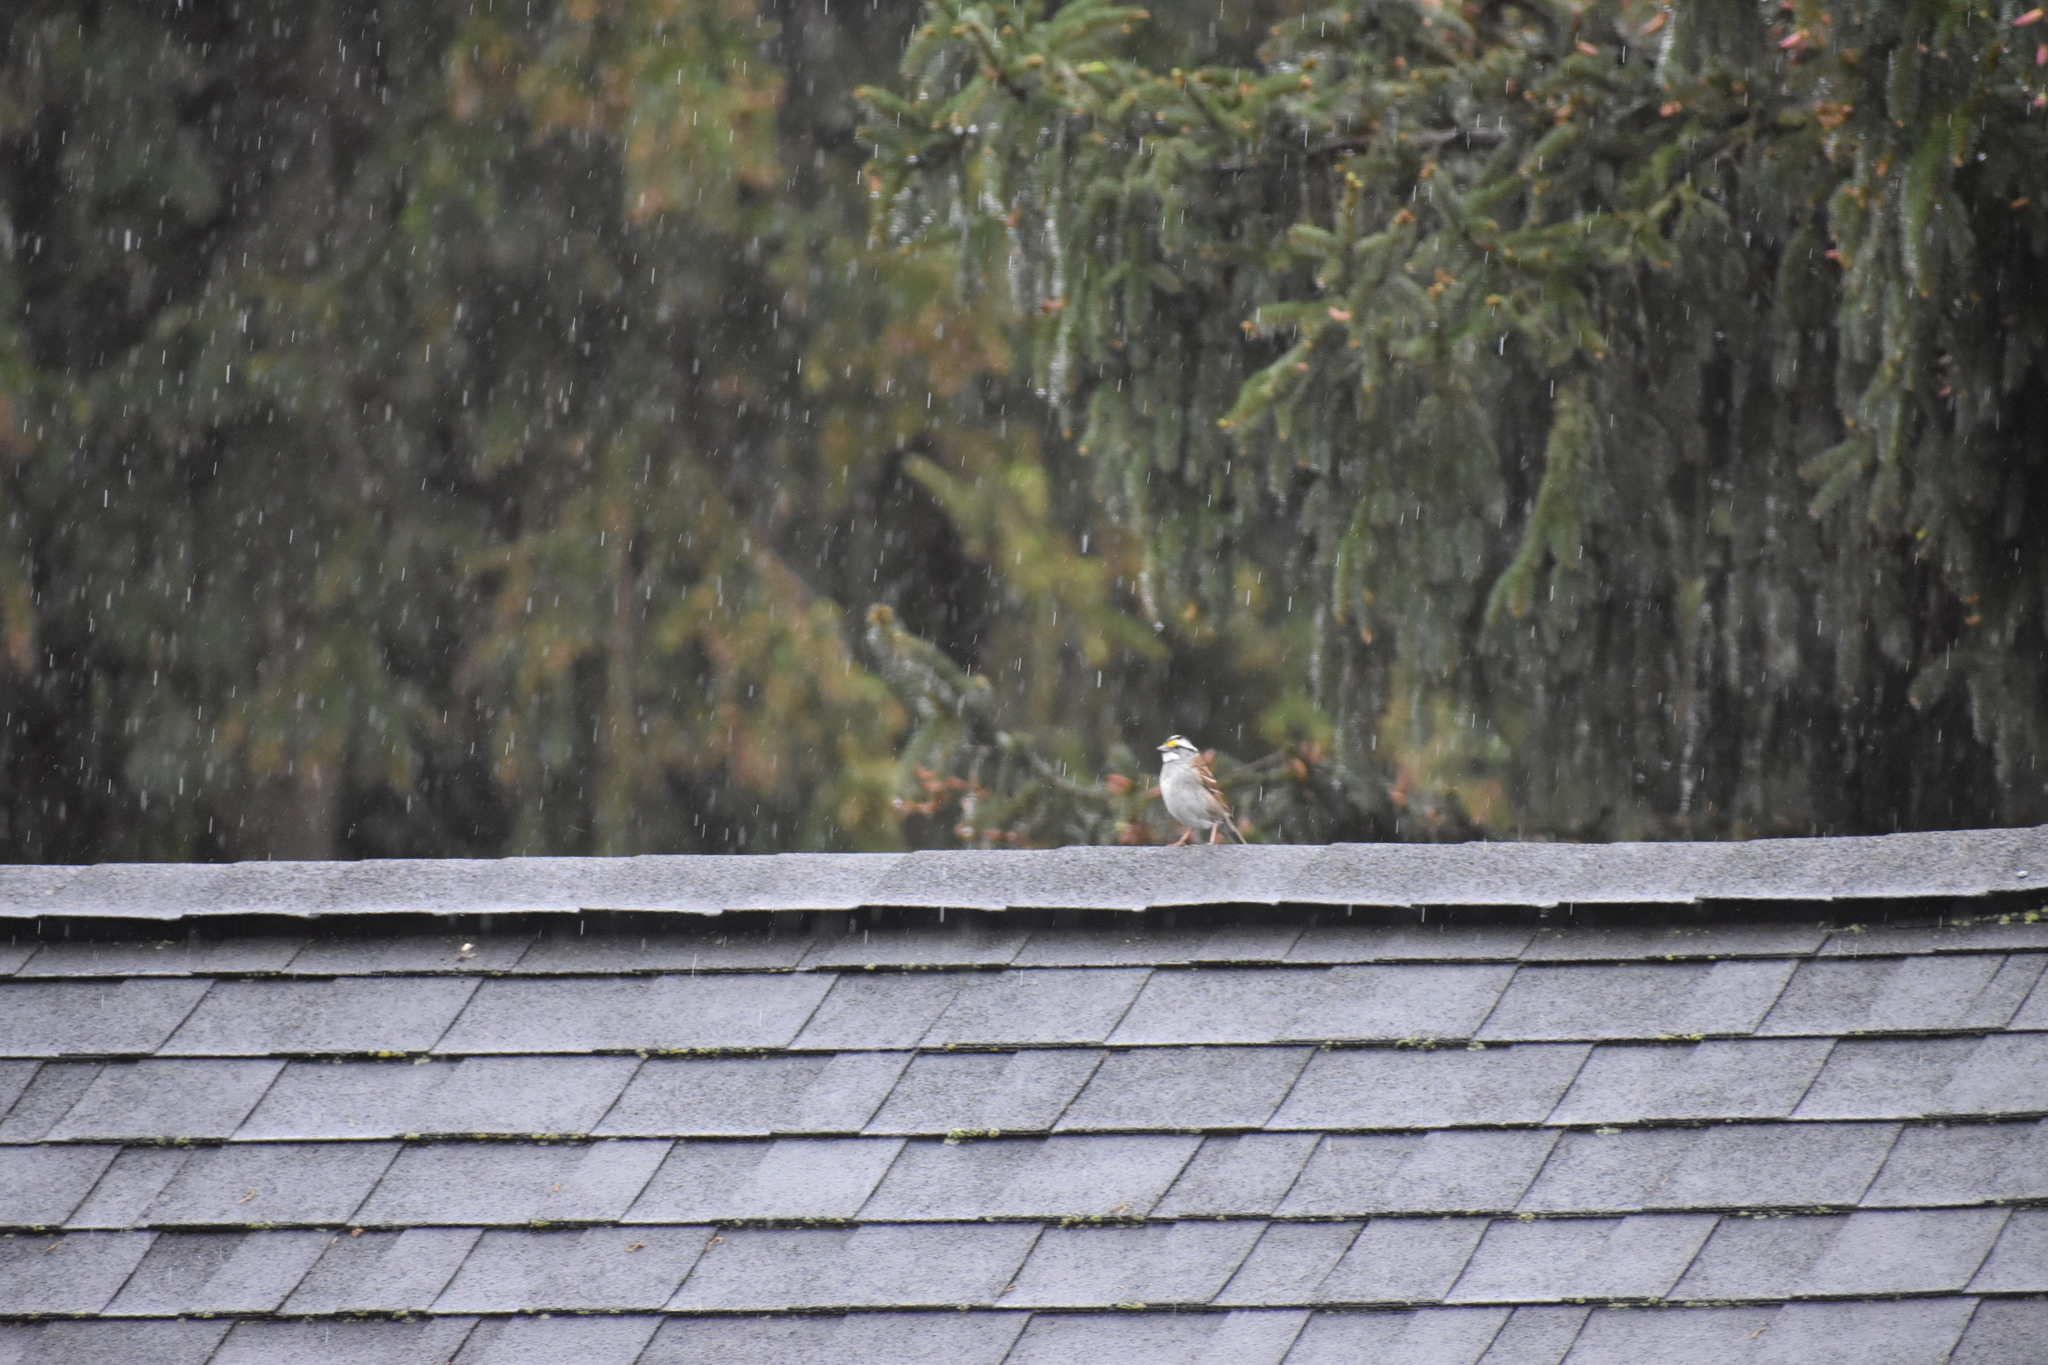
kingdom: Animalia
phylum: Chordata
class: Aves
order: Passeriformes
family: Passerellidae
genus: Zonotrichia
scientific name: Zonotrichia albicollis
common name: White-throated sparrow
